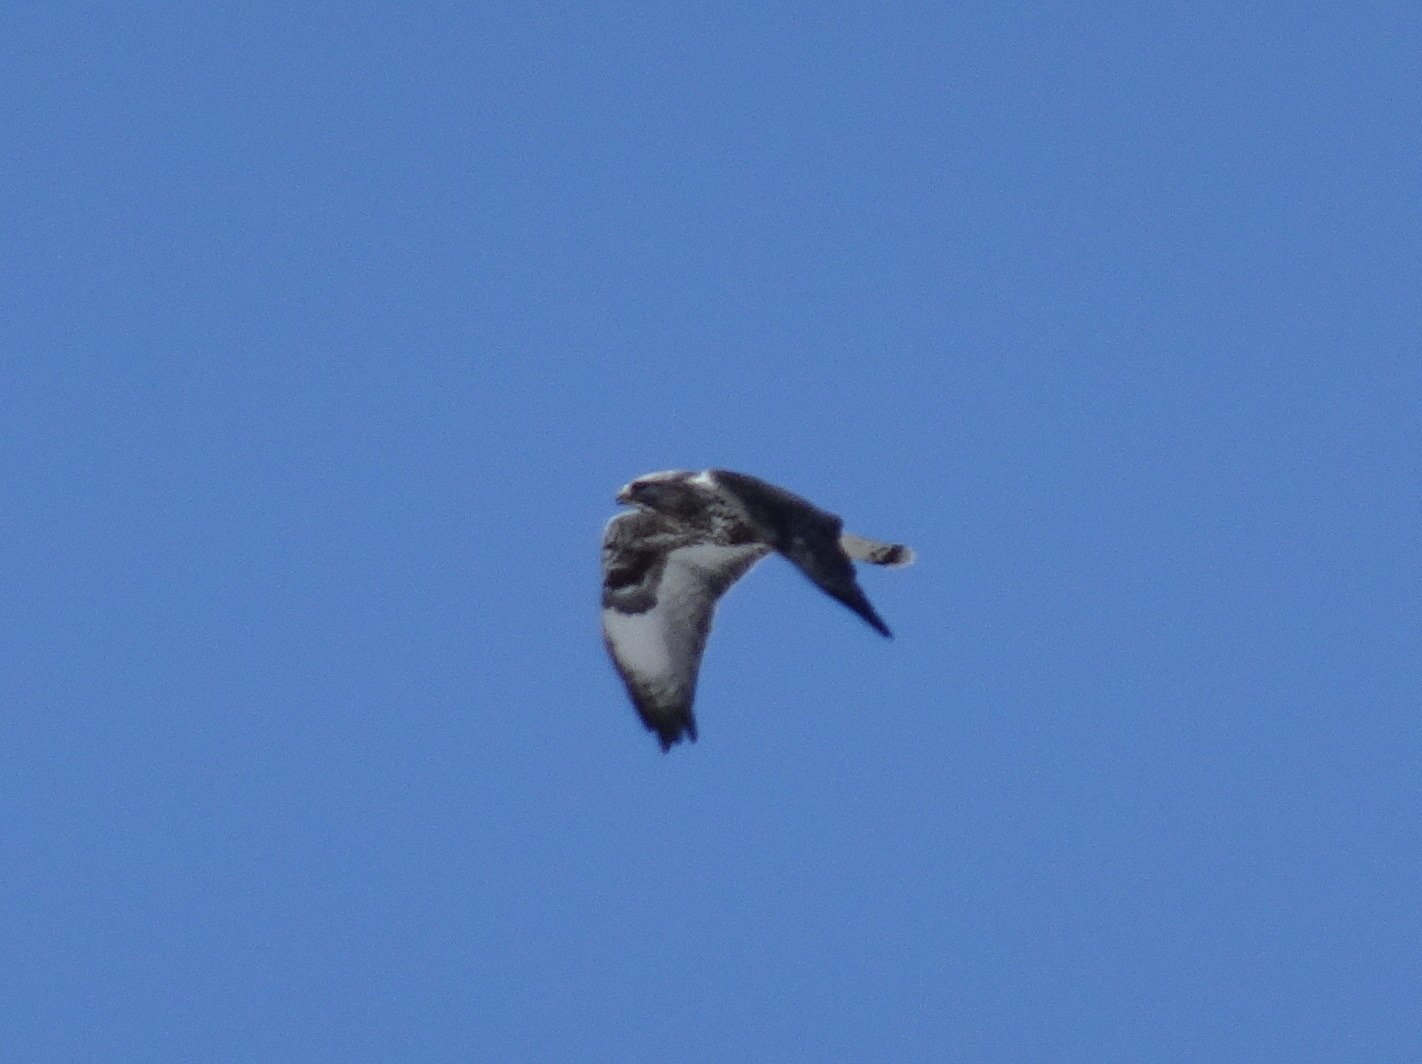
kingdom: Animalia
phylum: Chordata
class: Aves
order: Accipitriformes
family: Accipitridae
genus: Buteo
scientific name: Buteo lagopus
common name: Rough-legged buzzard
